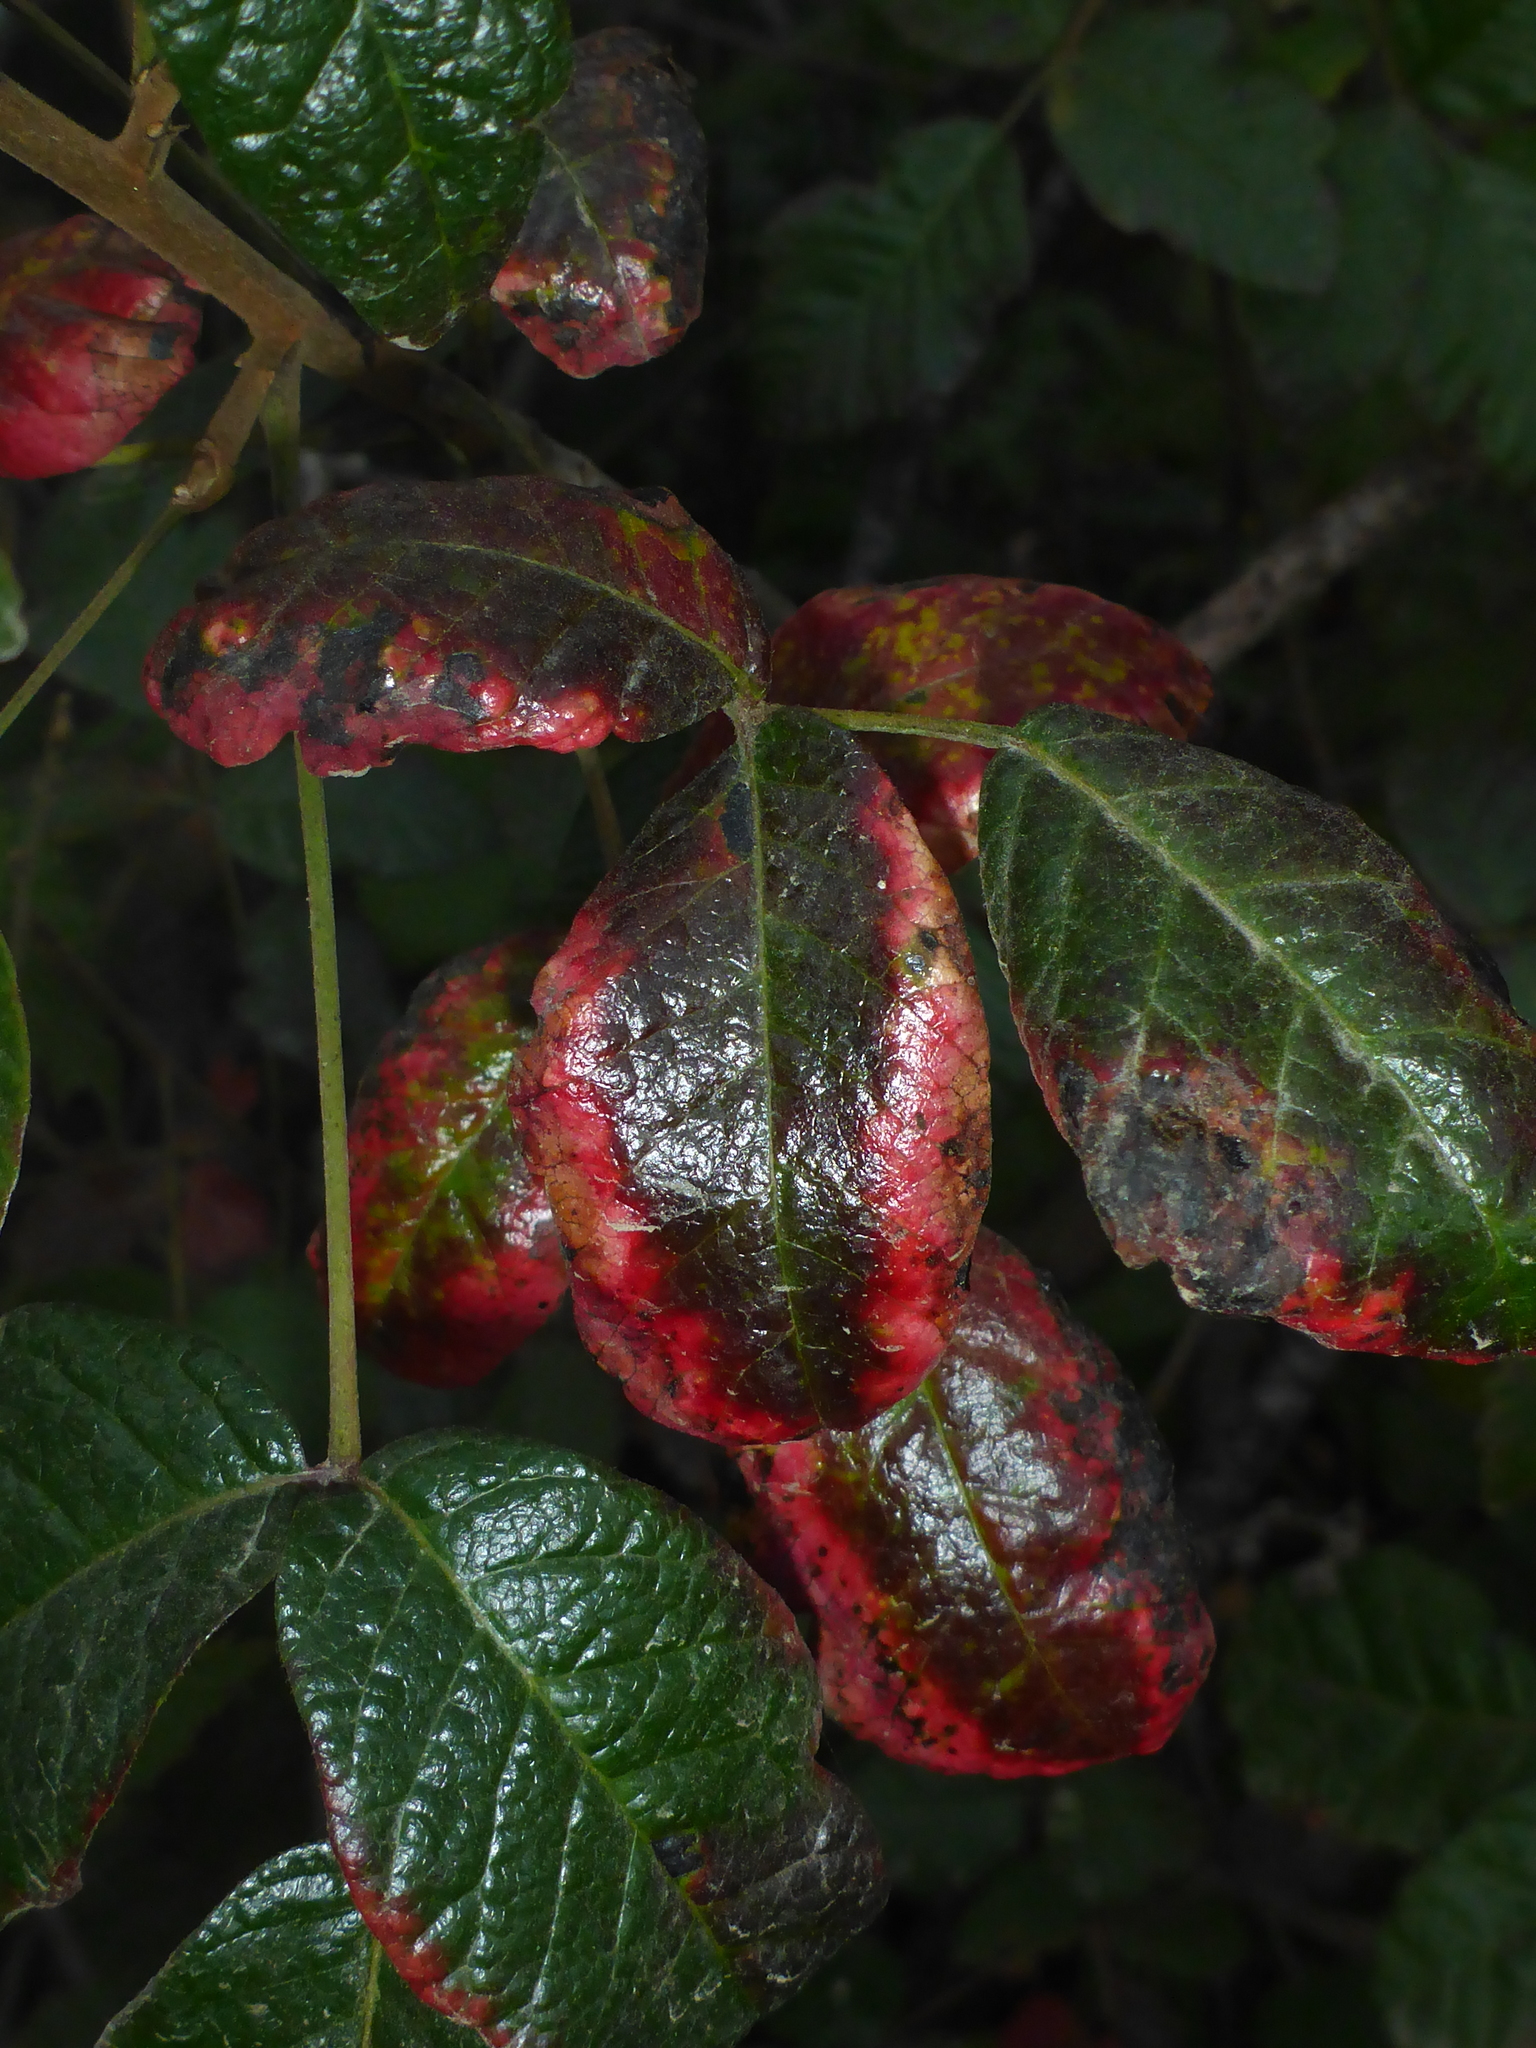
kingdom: Plantae
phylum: Tracheophyta
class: Magnoliopsida
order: Sapindales
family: Anacardiaceae
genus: Toxicodendron
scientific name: Toxicodendron diversilobum
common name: Pacific poison-oak
